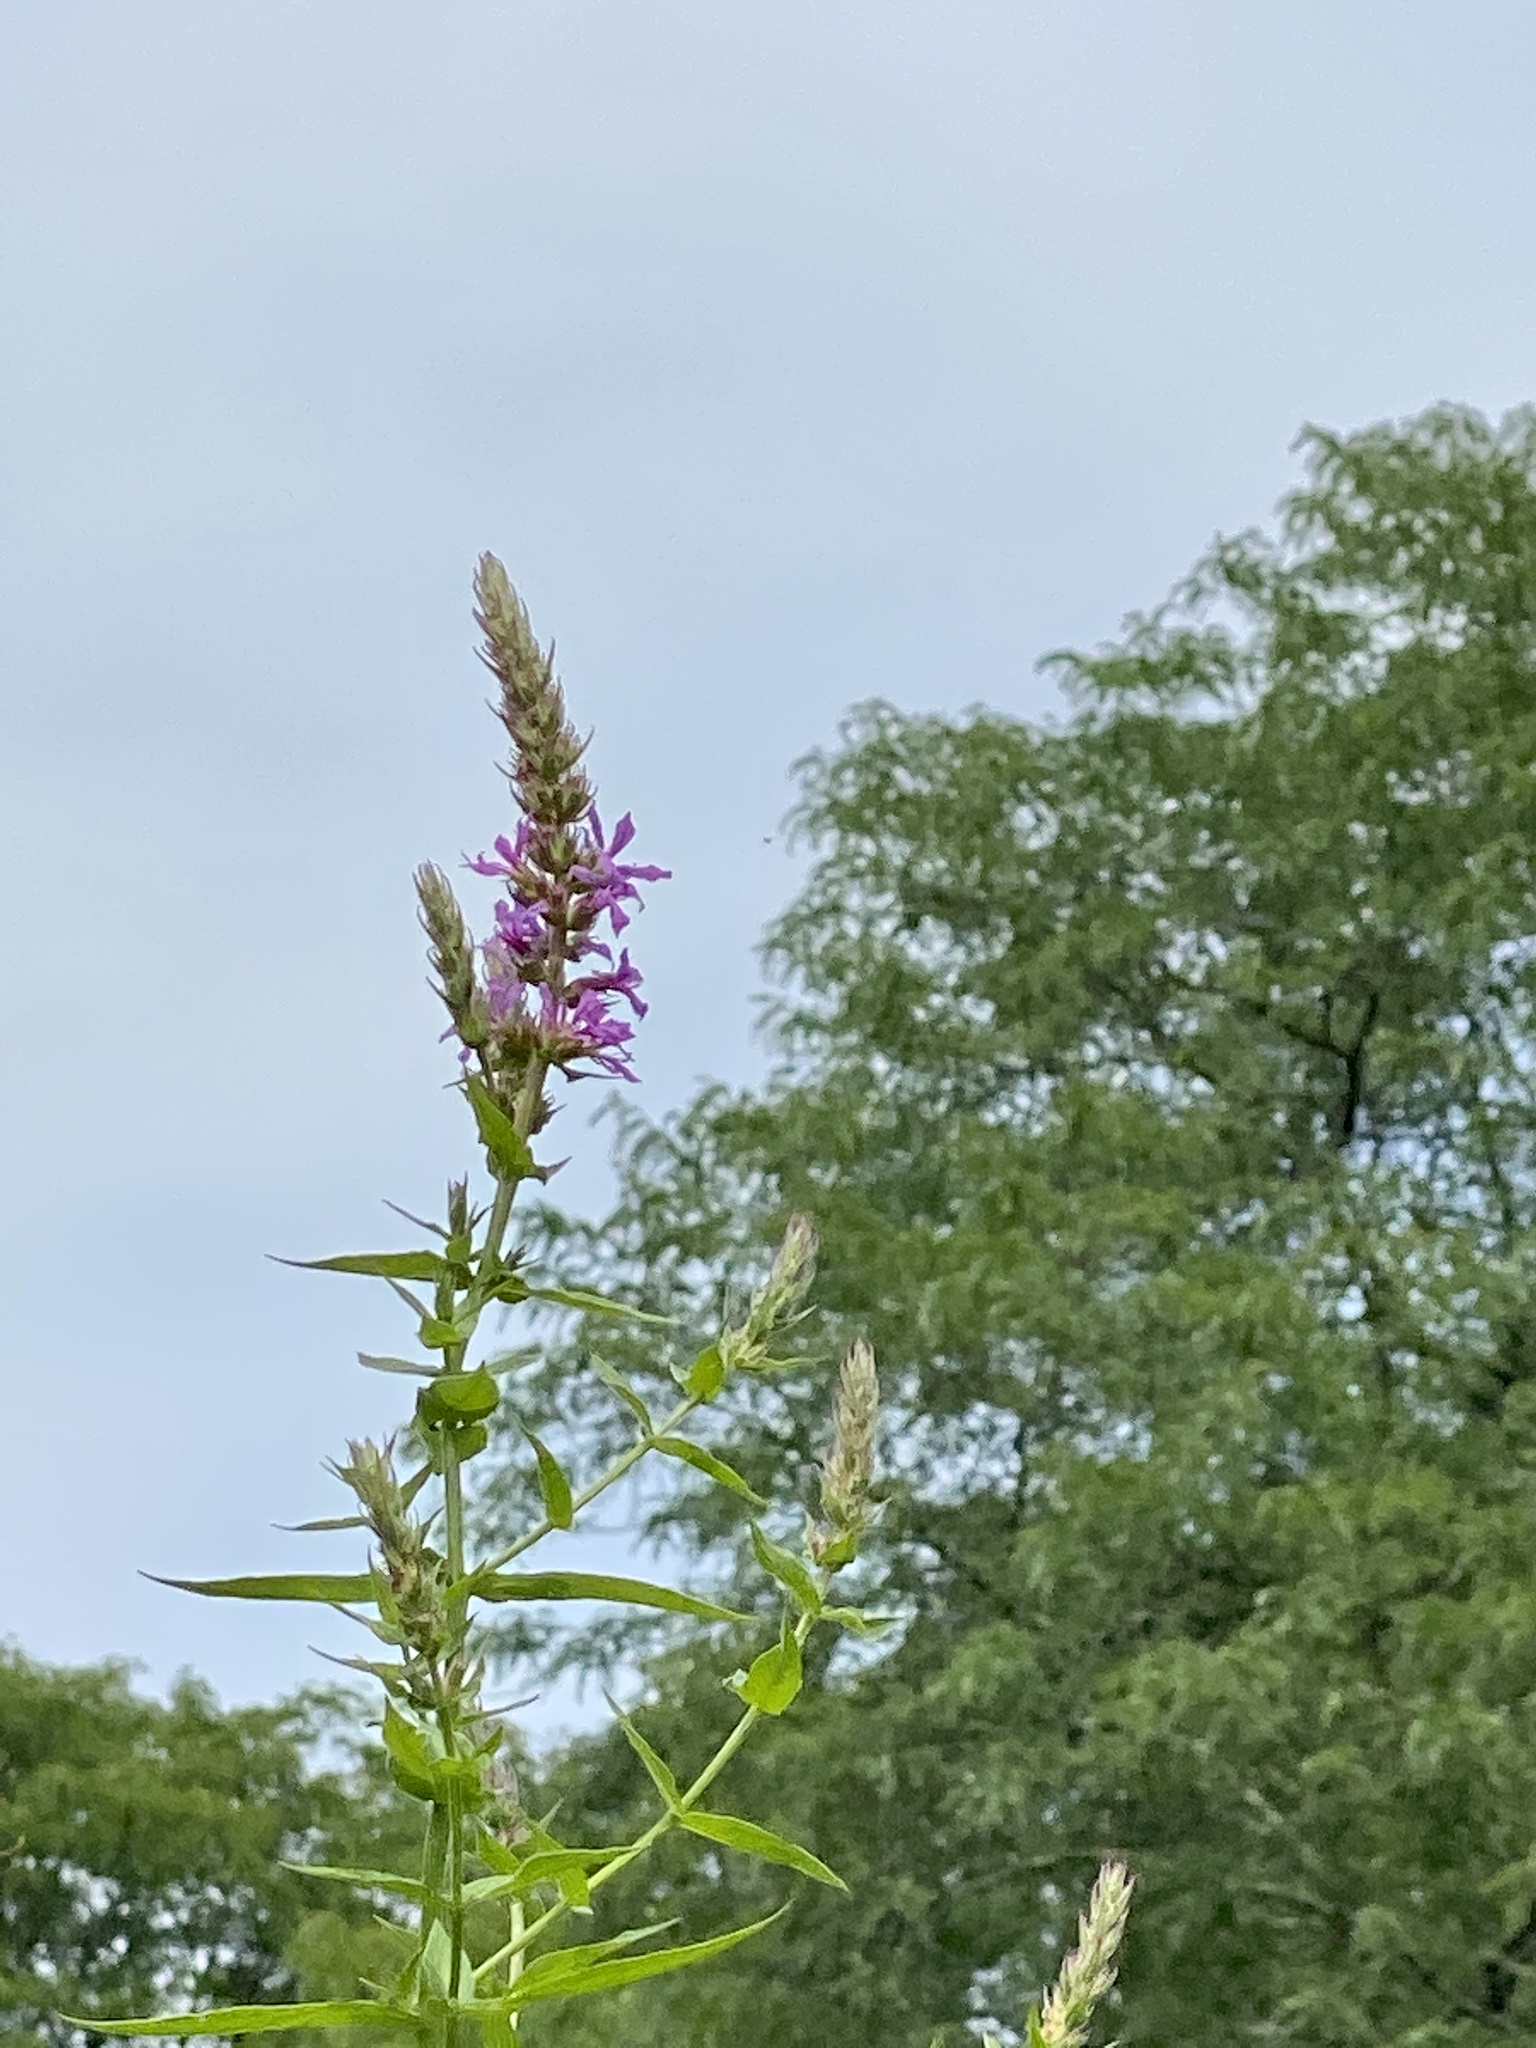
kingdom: Plantae
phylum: Tracheophyta
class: Magnoliopsida
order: Myrtales
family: Lythraceae
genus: Lythrum
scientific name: Lythrum salicaria
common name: Purple loosestrife
